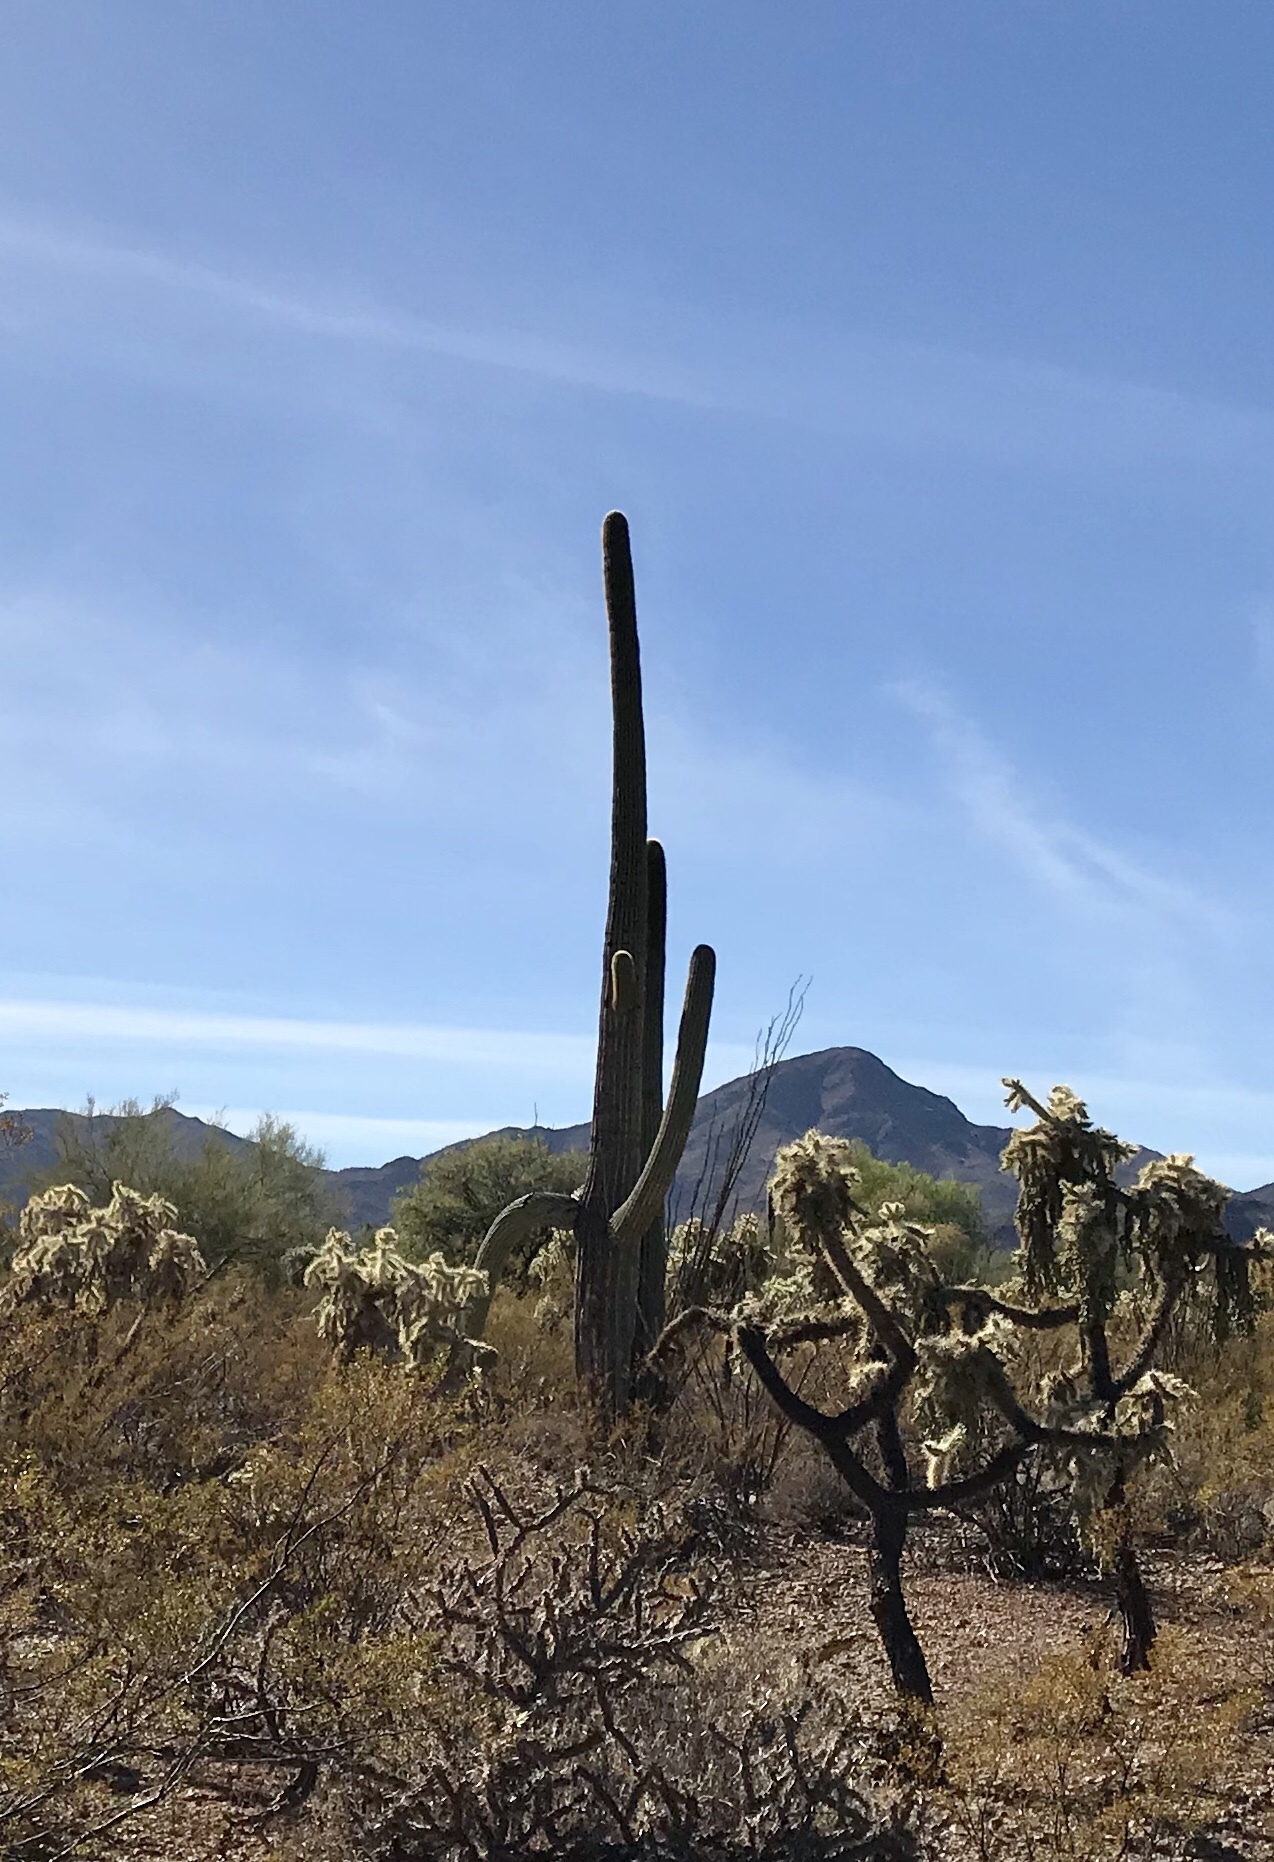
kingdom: Plantae
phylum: Tracheophyta
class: Magnoliopsida
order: Caryophyllales
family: Cactaceae
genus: Carnegiea
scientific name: Carnegiea gigantea
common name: Saguaro
